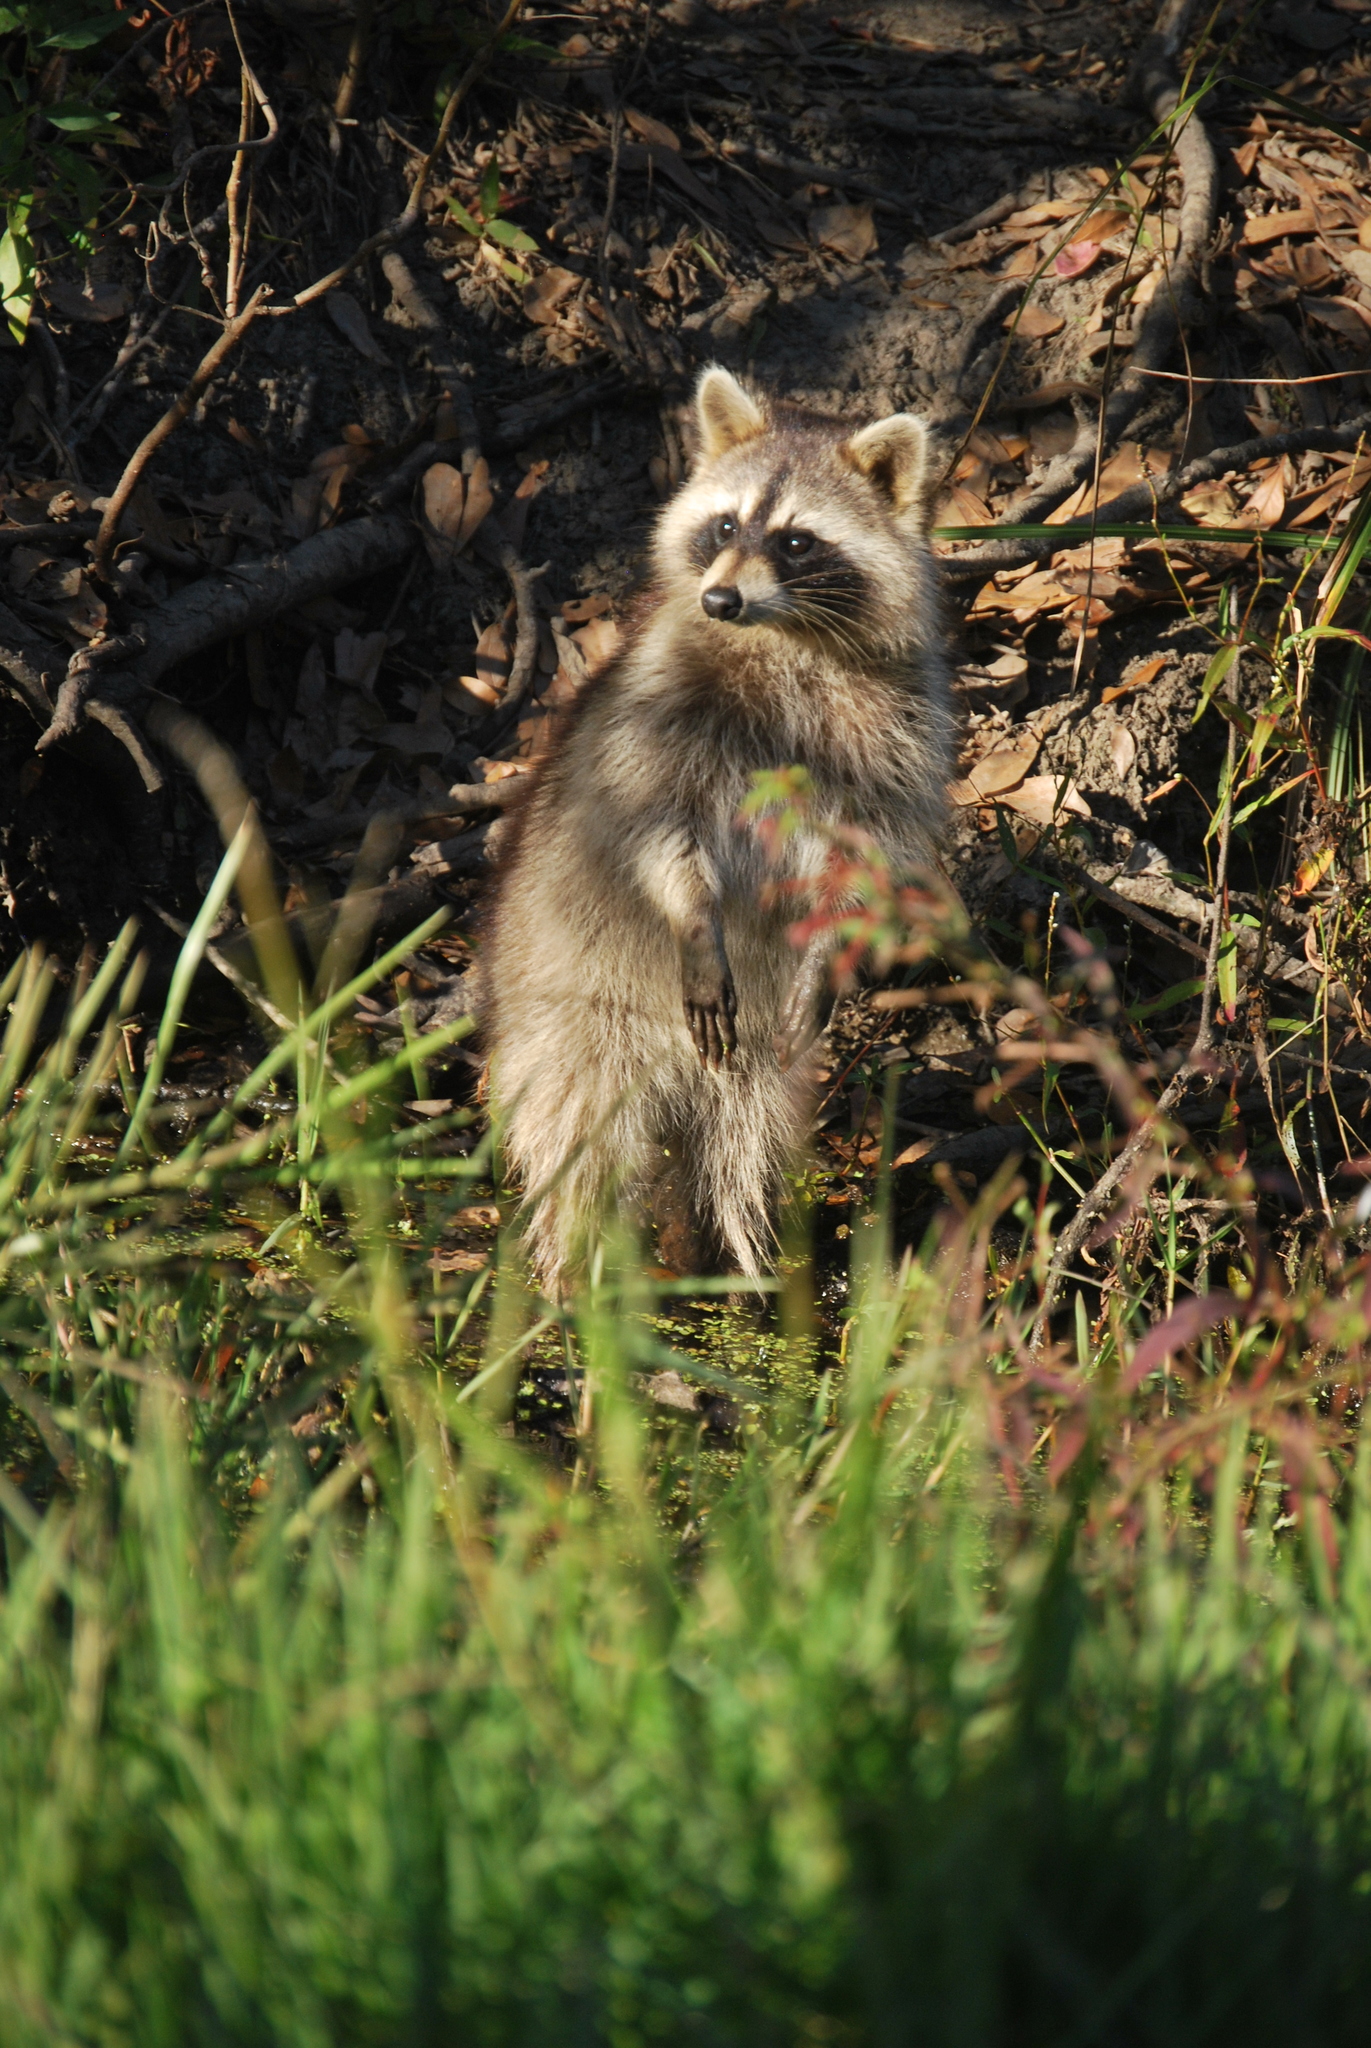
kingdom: Animalia
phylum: Chordata
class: Mammalia
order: Carnivora
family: Procyonidae
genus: Procyon
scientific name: Procyon lotor
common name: Raccoon
